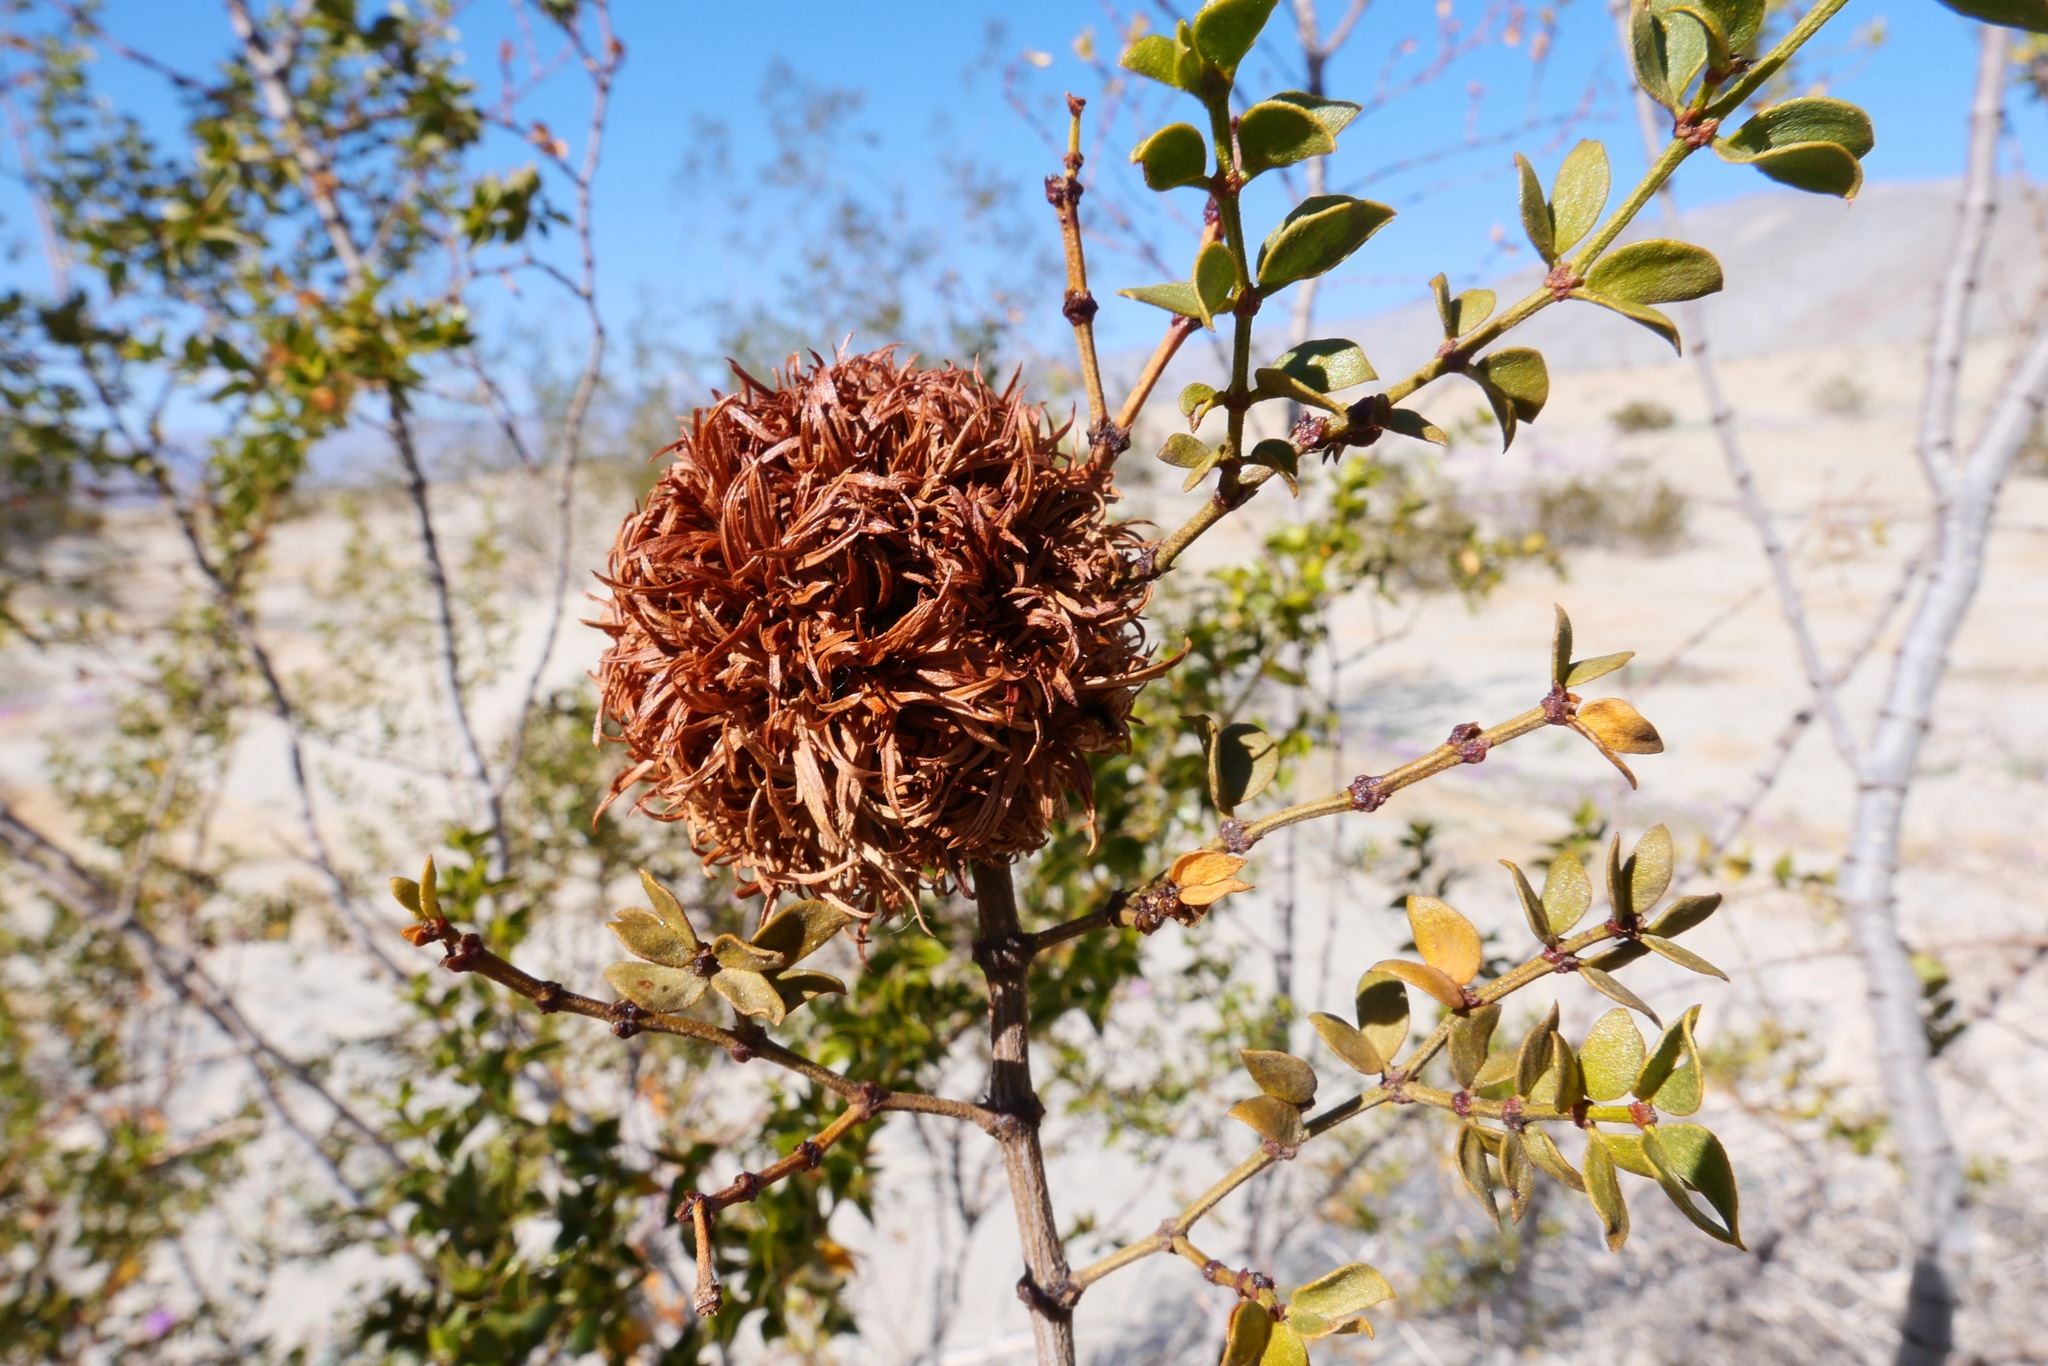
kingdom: Animalia
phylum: Arthropoda
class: Insecta
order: Diptera
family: Cecidomyiidae
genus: Asphondylia
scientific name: Asphondylia auripila
